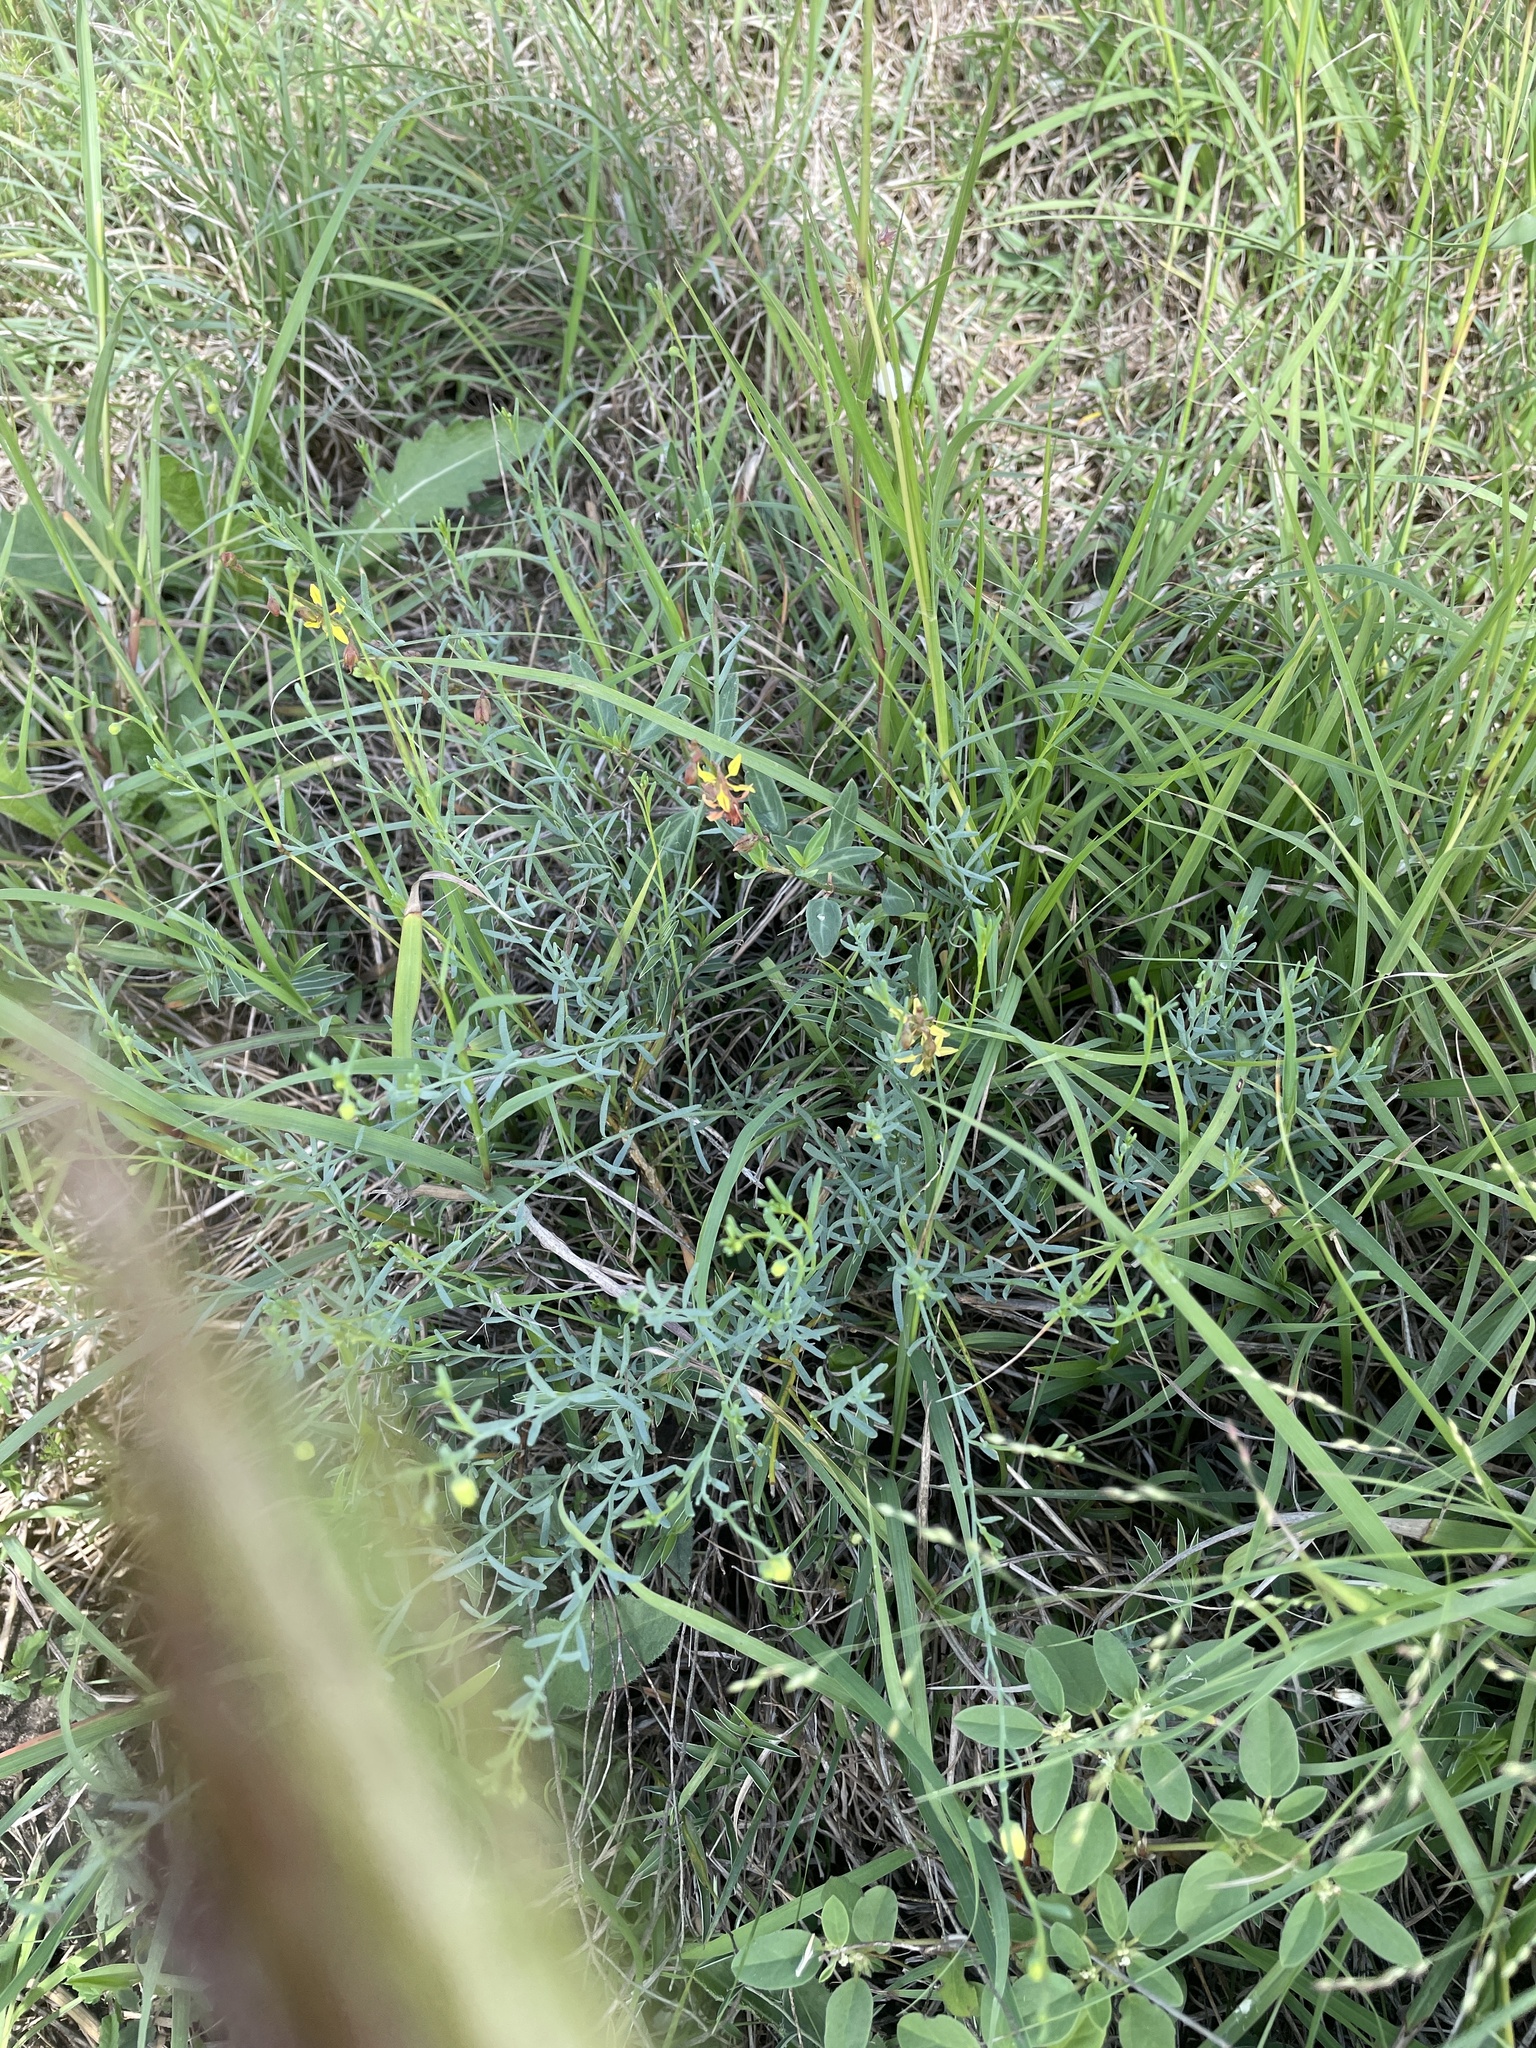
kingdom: Plantae
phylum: Tracheophyta
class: Magnoliopsida
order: Malpighiales
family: Malpighiaceae
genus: Galphimia
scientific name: Galphimia angustifolia
